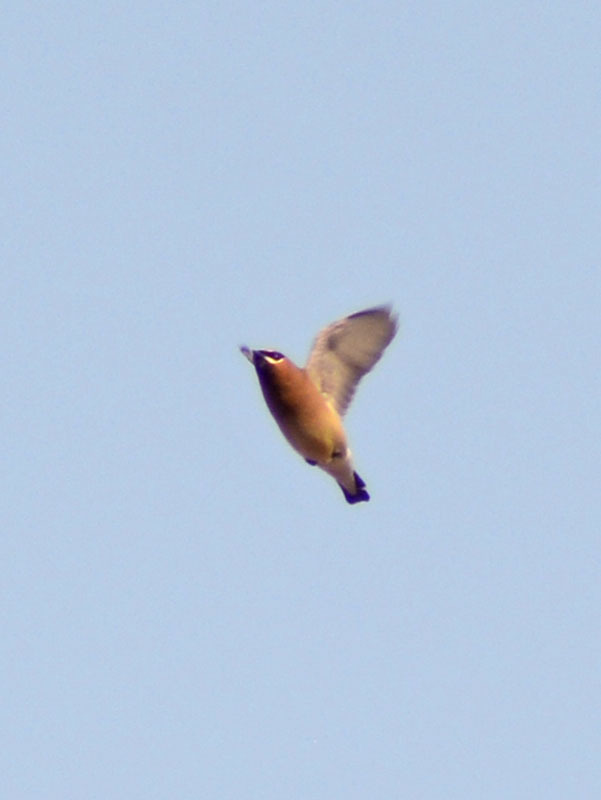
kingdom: Animalia
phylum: Chordata
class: Aves
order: Passeriformes
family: Bombycillidae
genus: Bombycilla
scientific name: Bombycilla cedrorum
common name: Cedar waxwing
